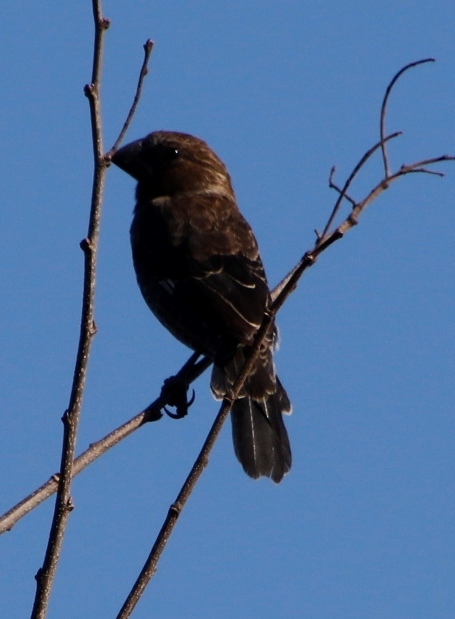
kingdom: Animalia
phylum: Chordata
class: Aves
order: Passeriformes
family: Ploceidae
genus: Amblyospiza
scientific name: Amblyospiza albifrons
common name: Thick-billed weaver
